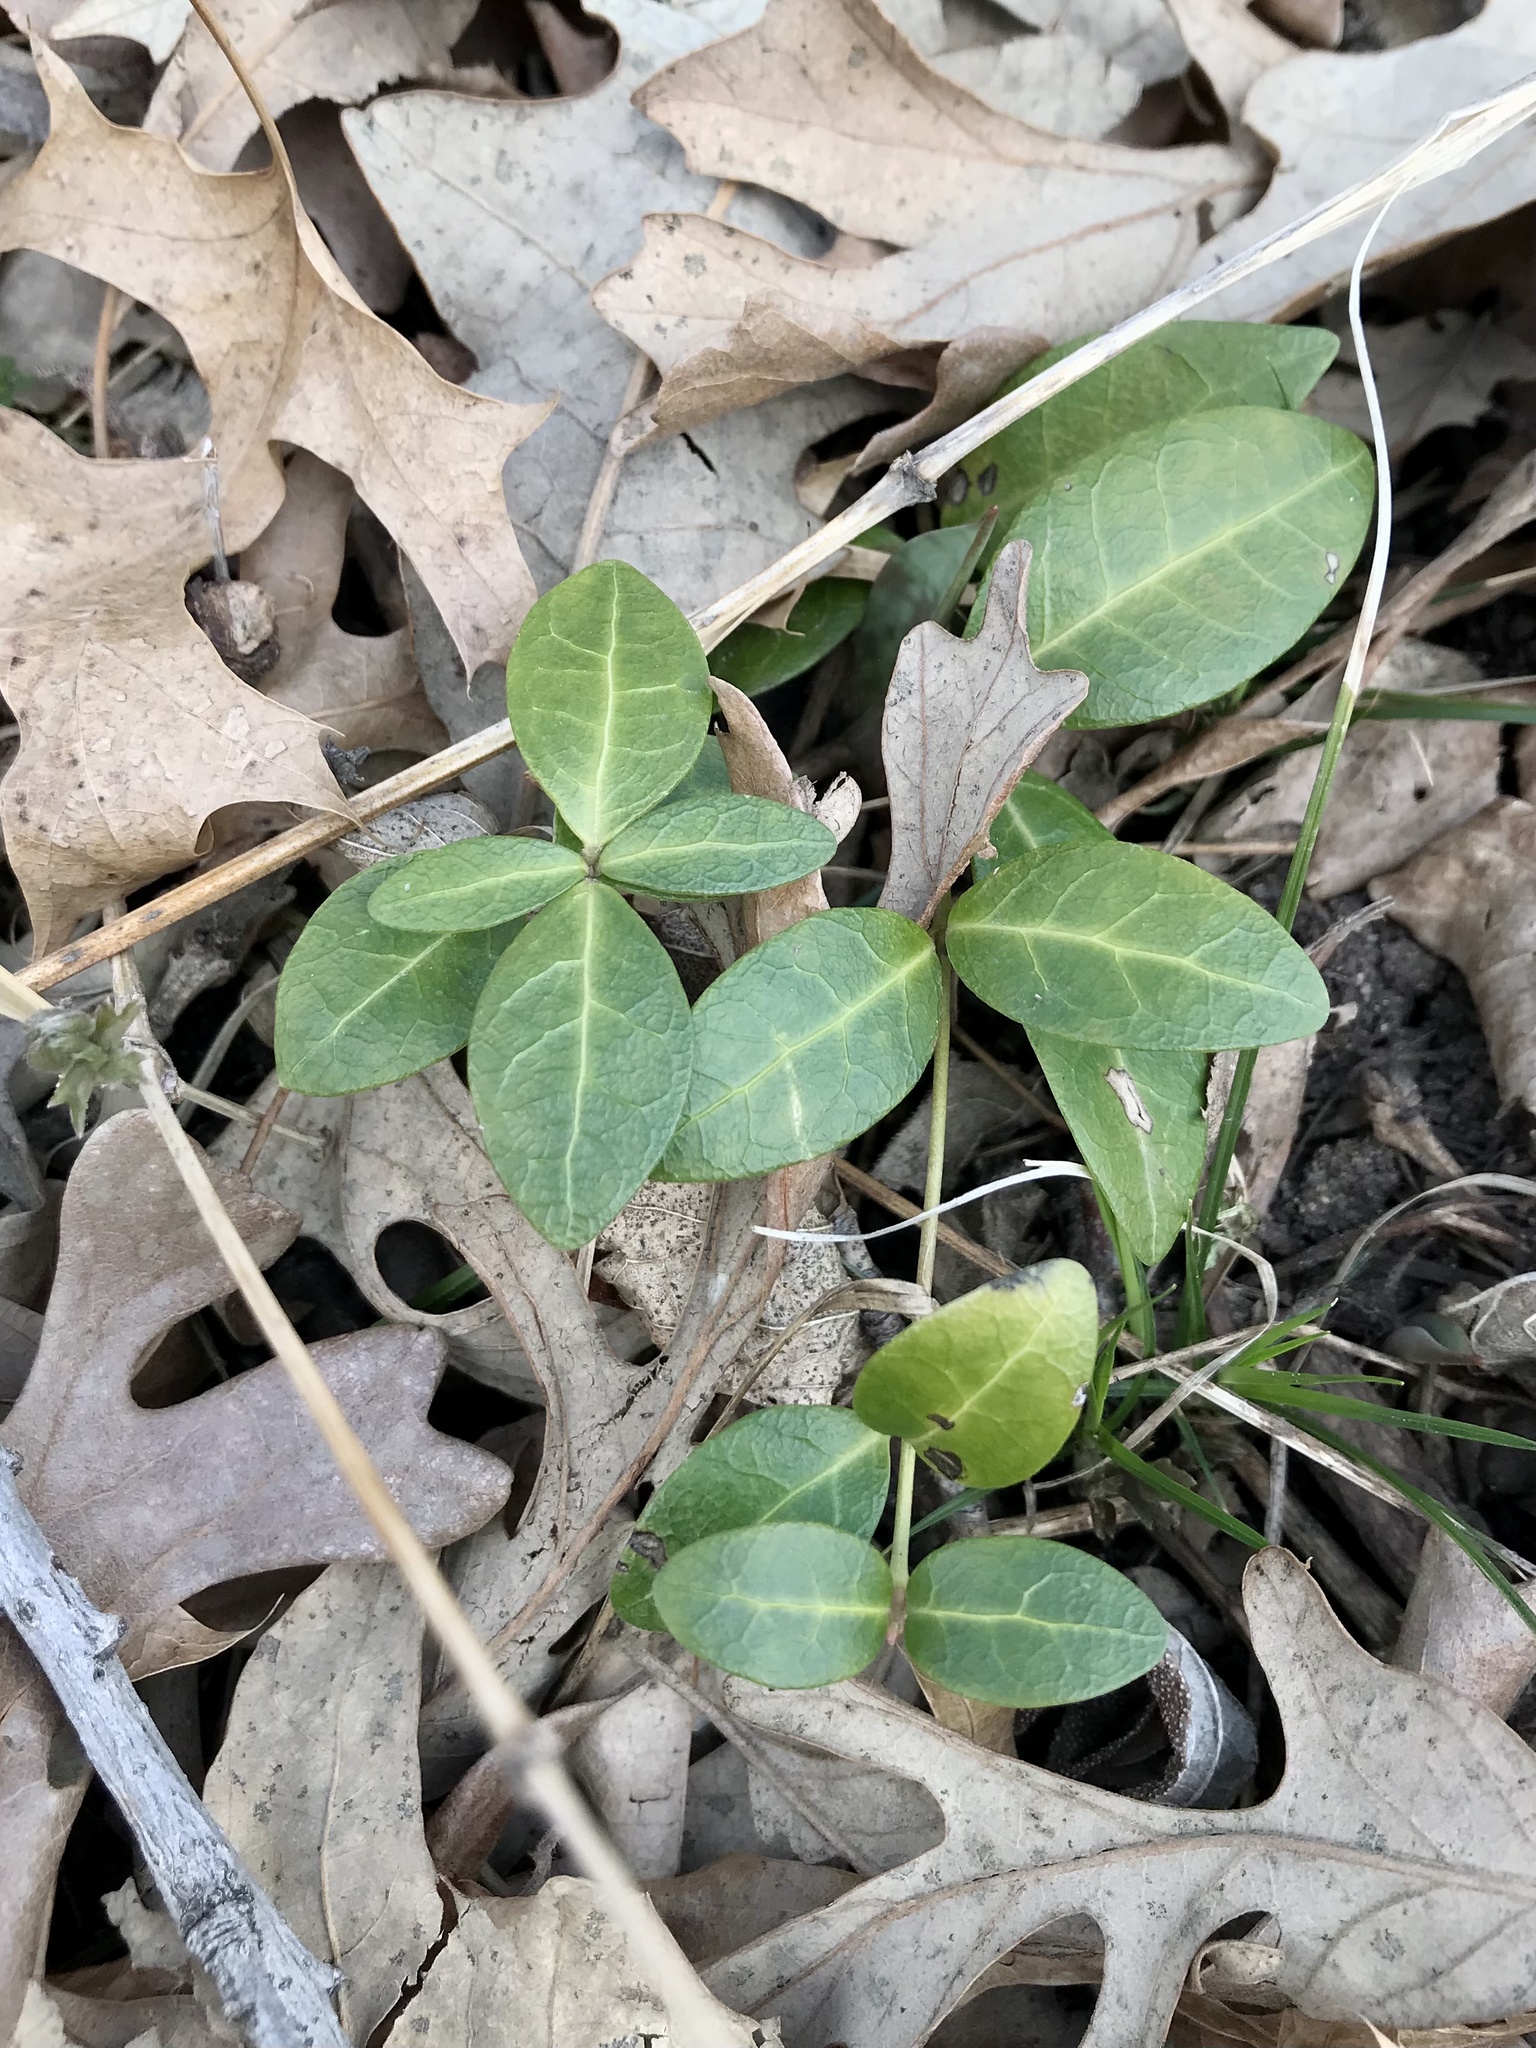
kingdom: Plantae
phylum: Tracheophyta
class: Magnoliopsida
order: Gentianales
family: Apocynaceae
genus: Vinca
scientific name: Vinca minor
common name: Lesser periwinkle
